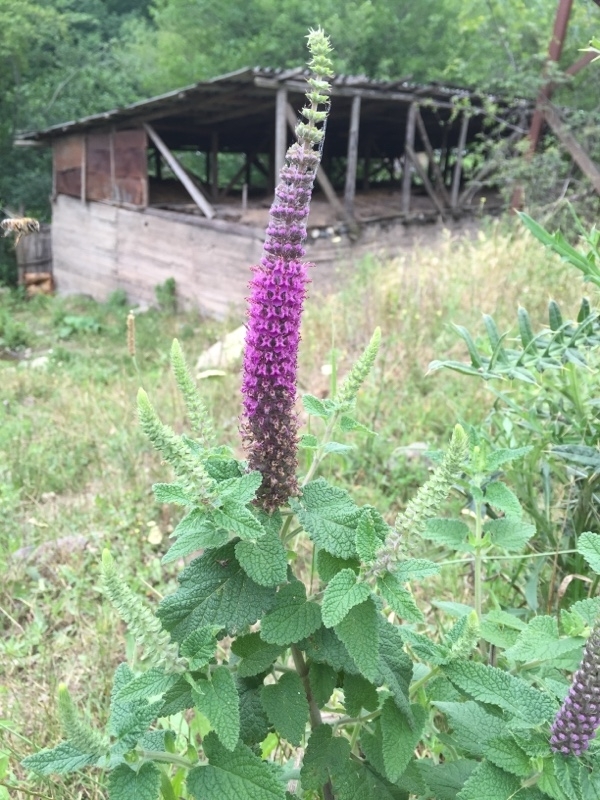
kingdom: Plantae
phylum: Tracheophyta
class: Magnoliopsida
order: Lamiales
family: Lamiaceae
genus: Teucrium
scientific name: Teucrium hircanicum
